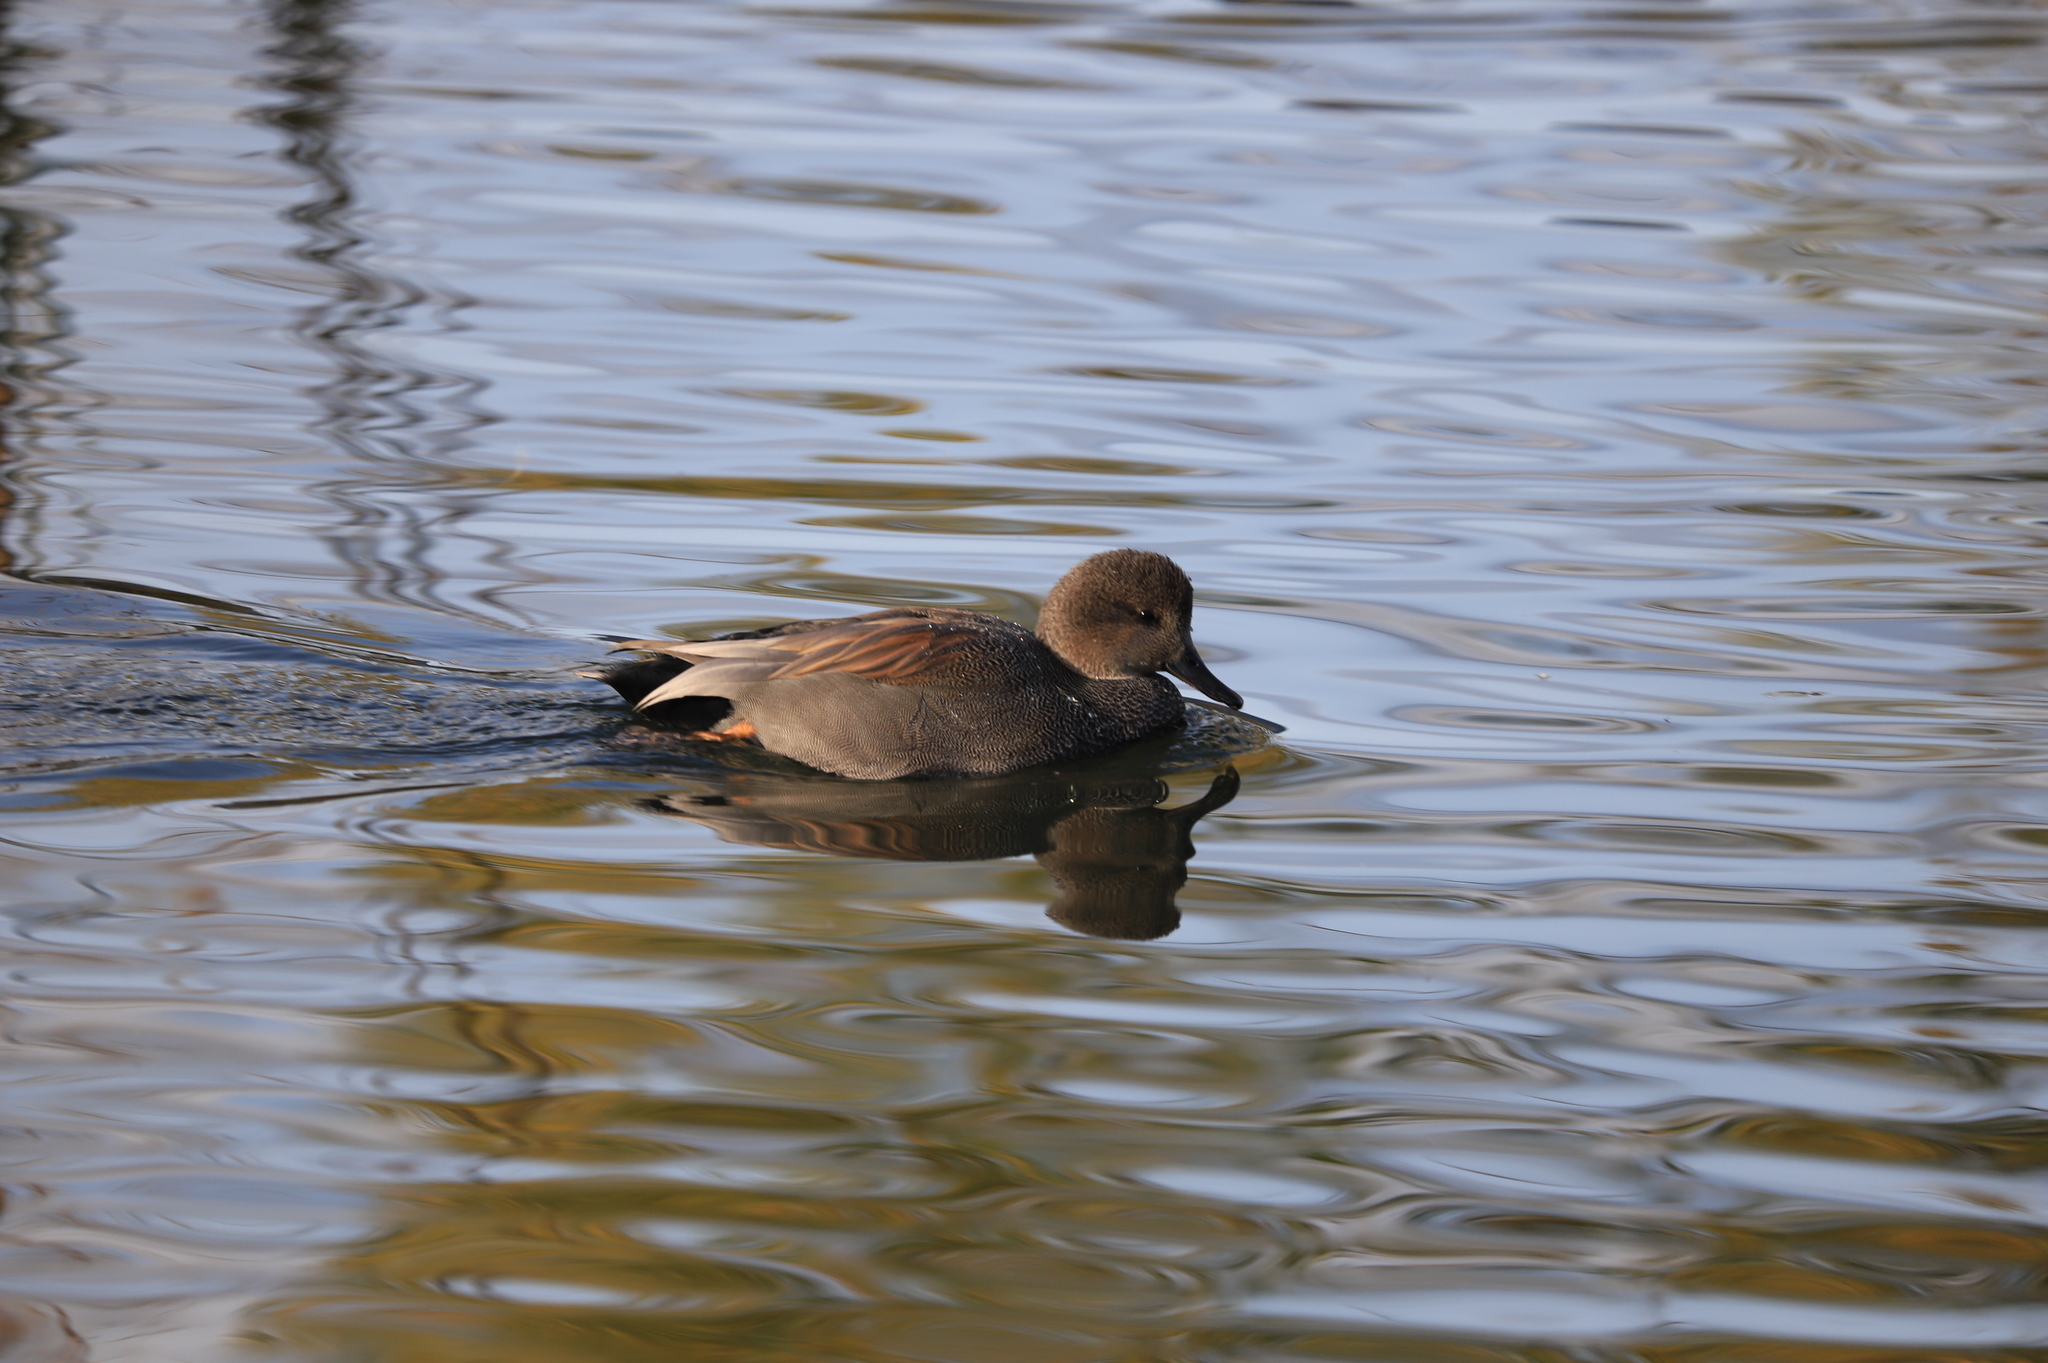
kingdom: Animalia
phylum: Chordata
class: Aves
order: Anseriformes
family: Anatidae
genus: Mareca
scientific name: Mareca strepera
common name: Gadwall
